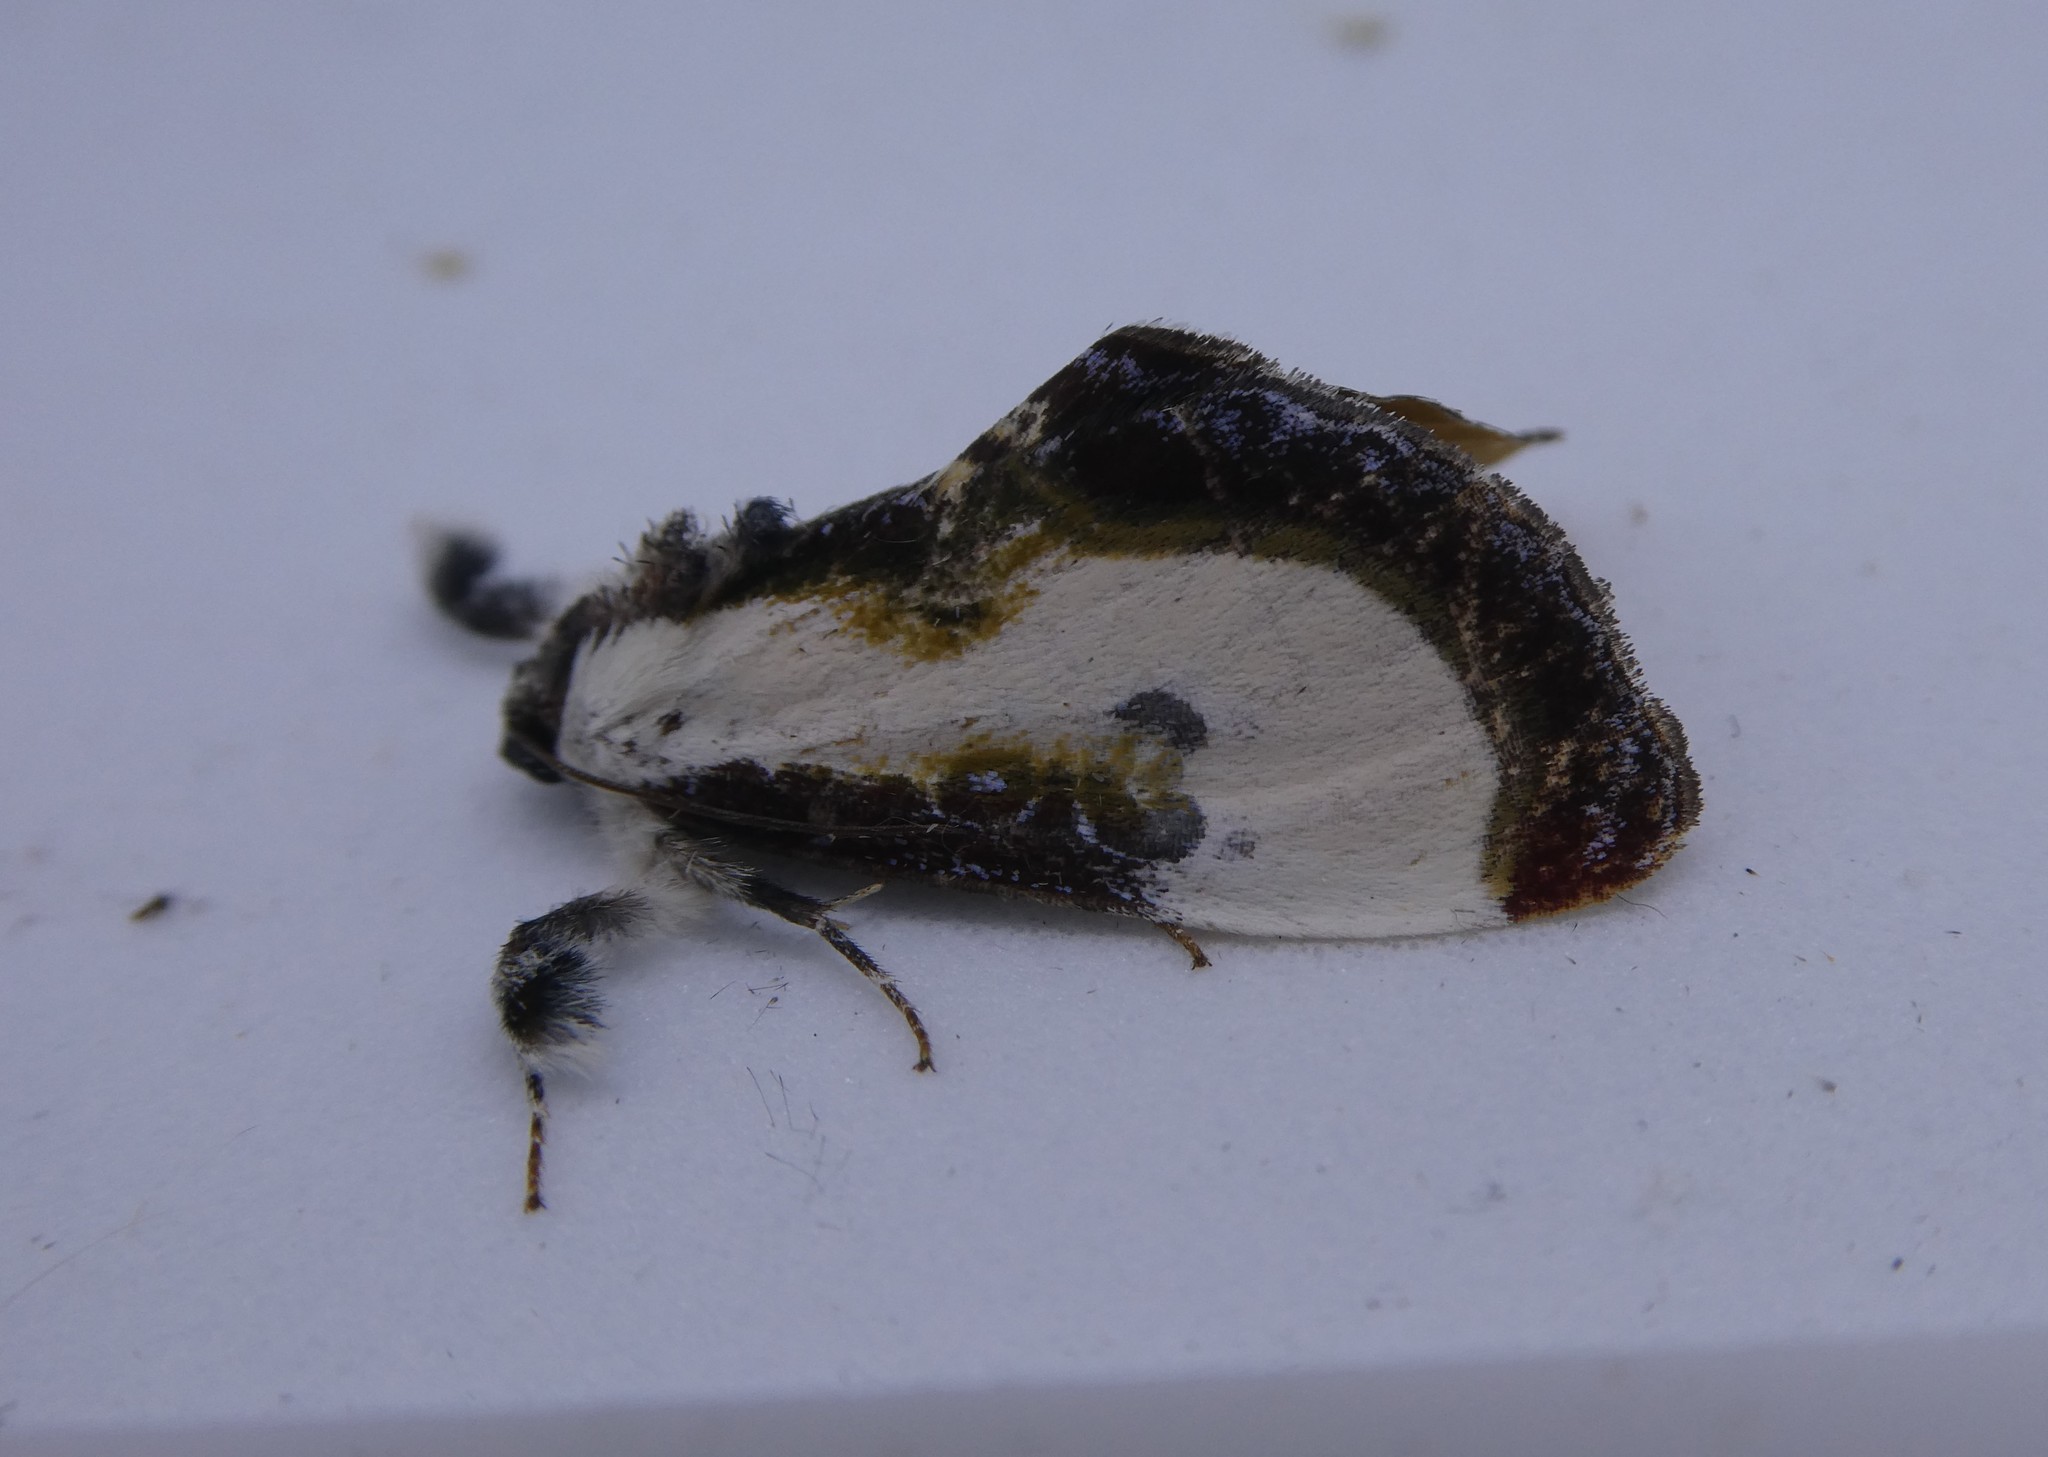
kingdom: Animalia
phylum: Arthropoda
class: Insecta
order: Lepidoptera
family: Noctuidae
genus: Eudryas
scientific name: Eudryas grata
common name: Beautiful wood-nymph
